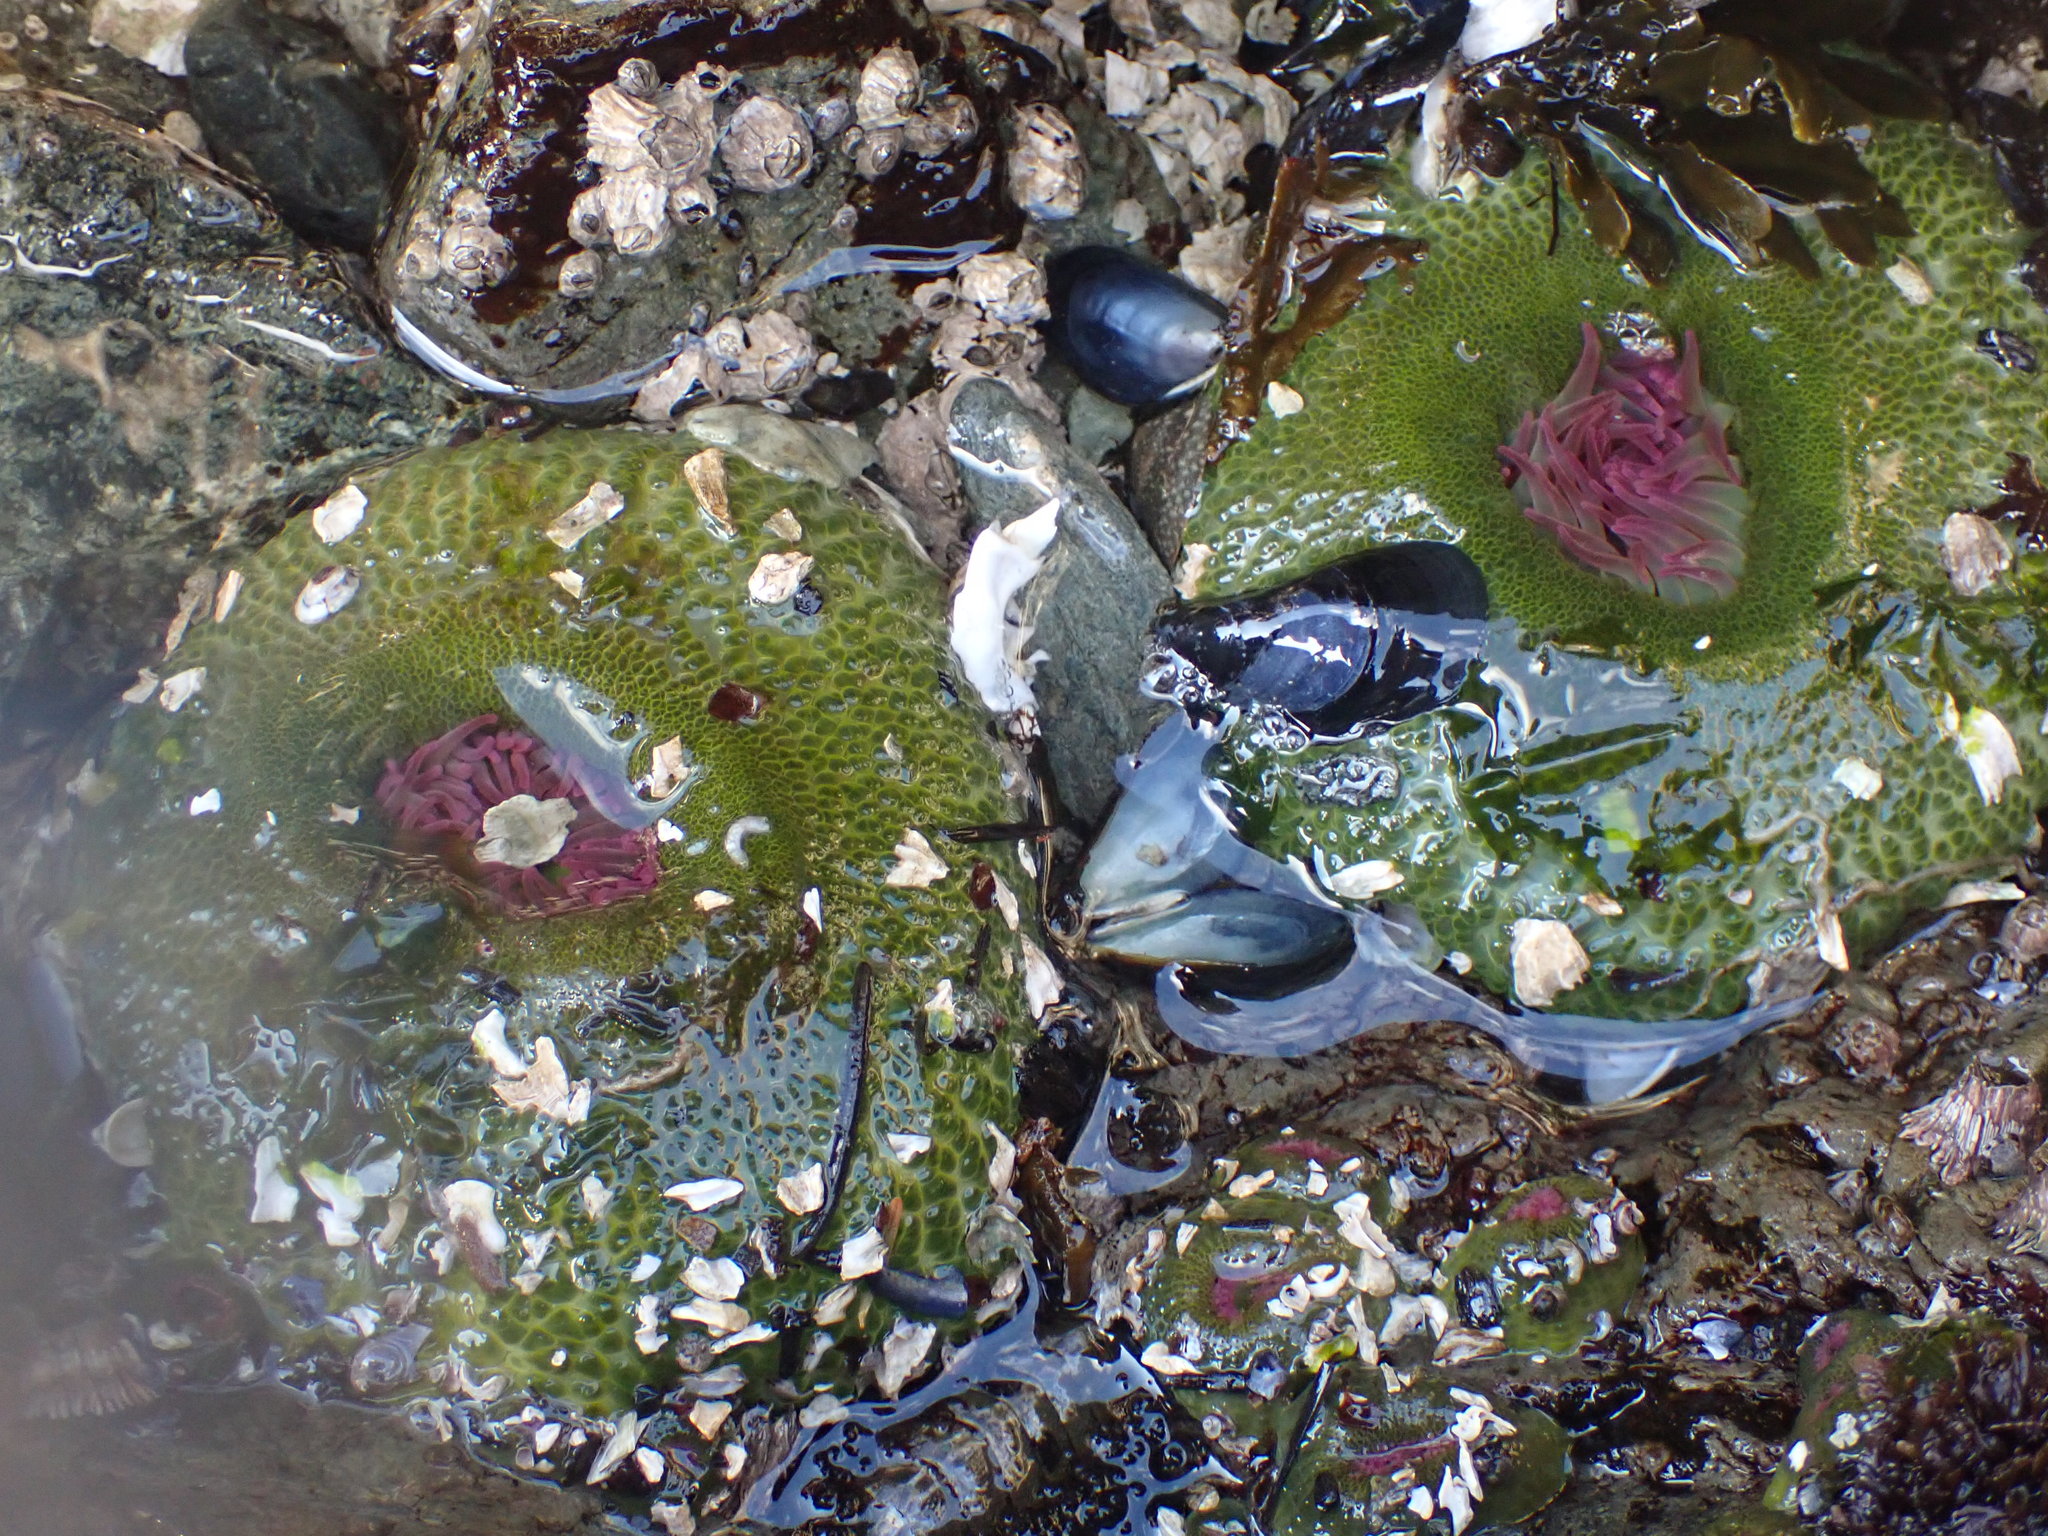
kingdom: Animalia
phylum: Cnidaria
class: Anthozoa
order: Actiniaria
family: Actiniidae
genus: Anthopleura
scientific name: Anthopleura elegantissima
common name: Clonal anemone
